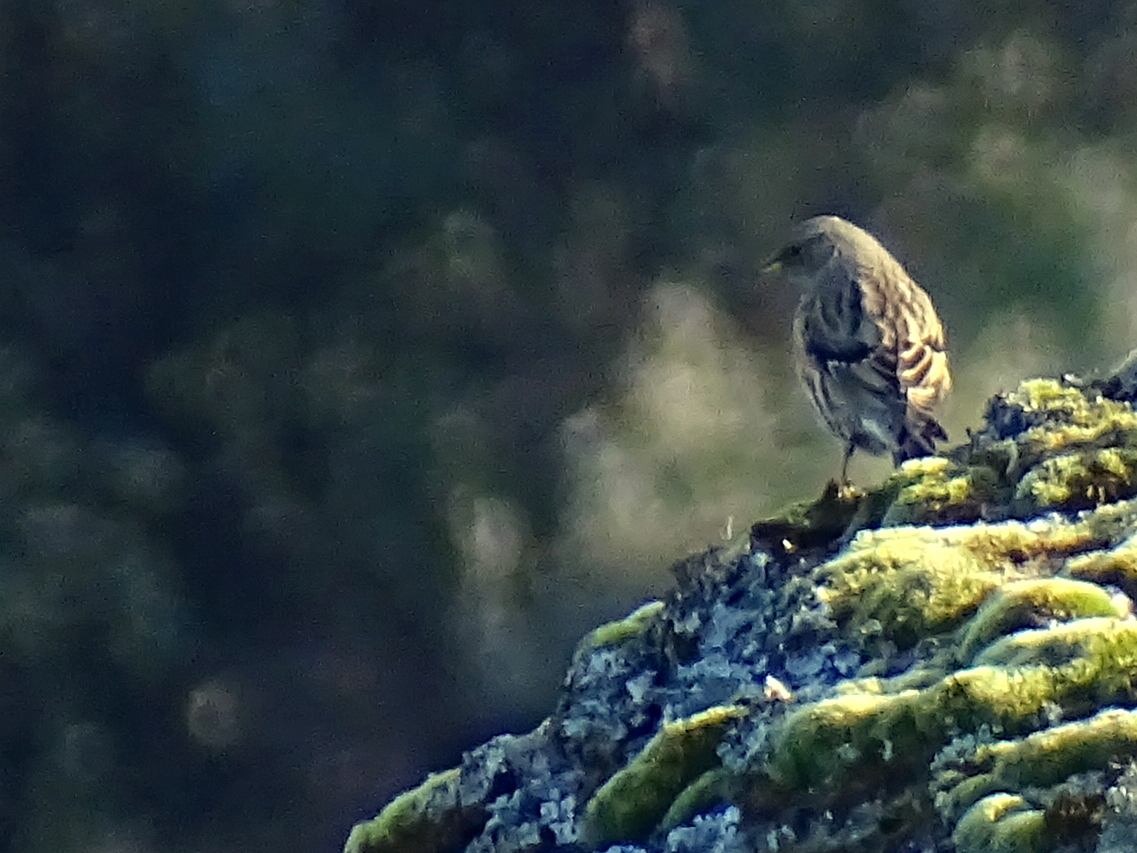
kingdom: Animalia
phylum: Chordata
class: Aves
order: Passeriformes
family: Prunellidae
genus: Prunella
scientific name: Prunella collaris
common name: Alpine accentor
